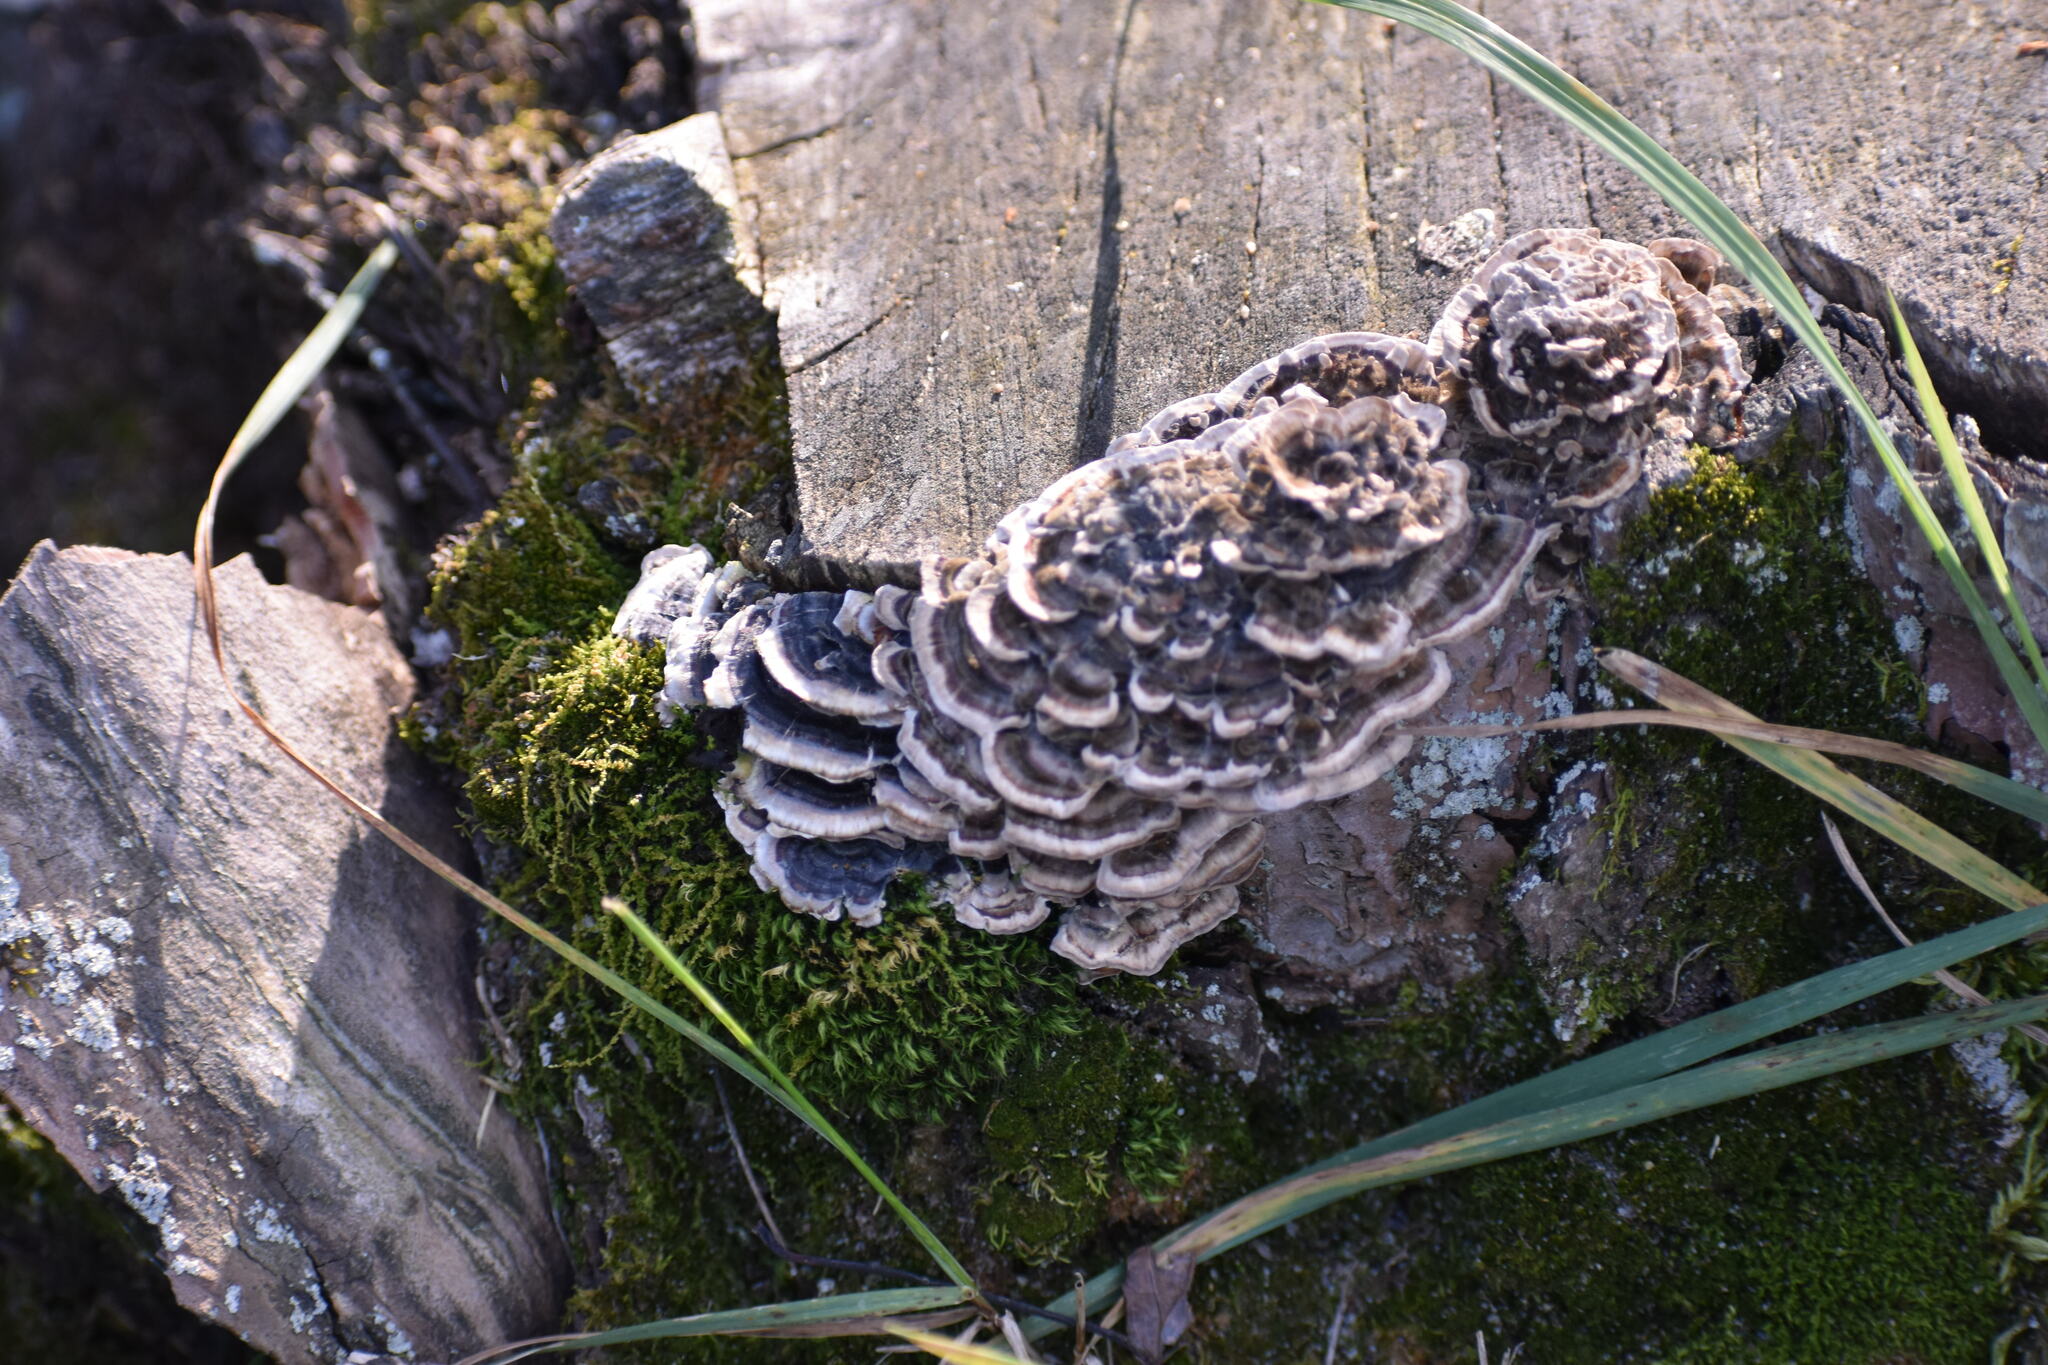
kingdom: Fungi
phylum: Basidiomycota
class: Agaricomycetes
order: Polyporales
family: Polyporaceae
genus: Trametes
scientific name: Trametes versicolor
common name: Turkeytail
